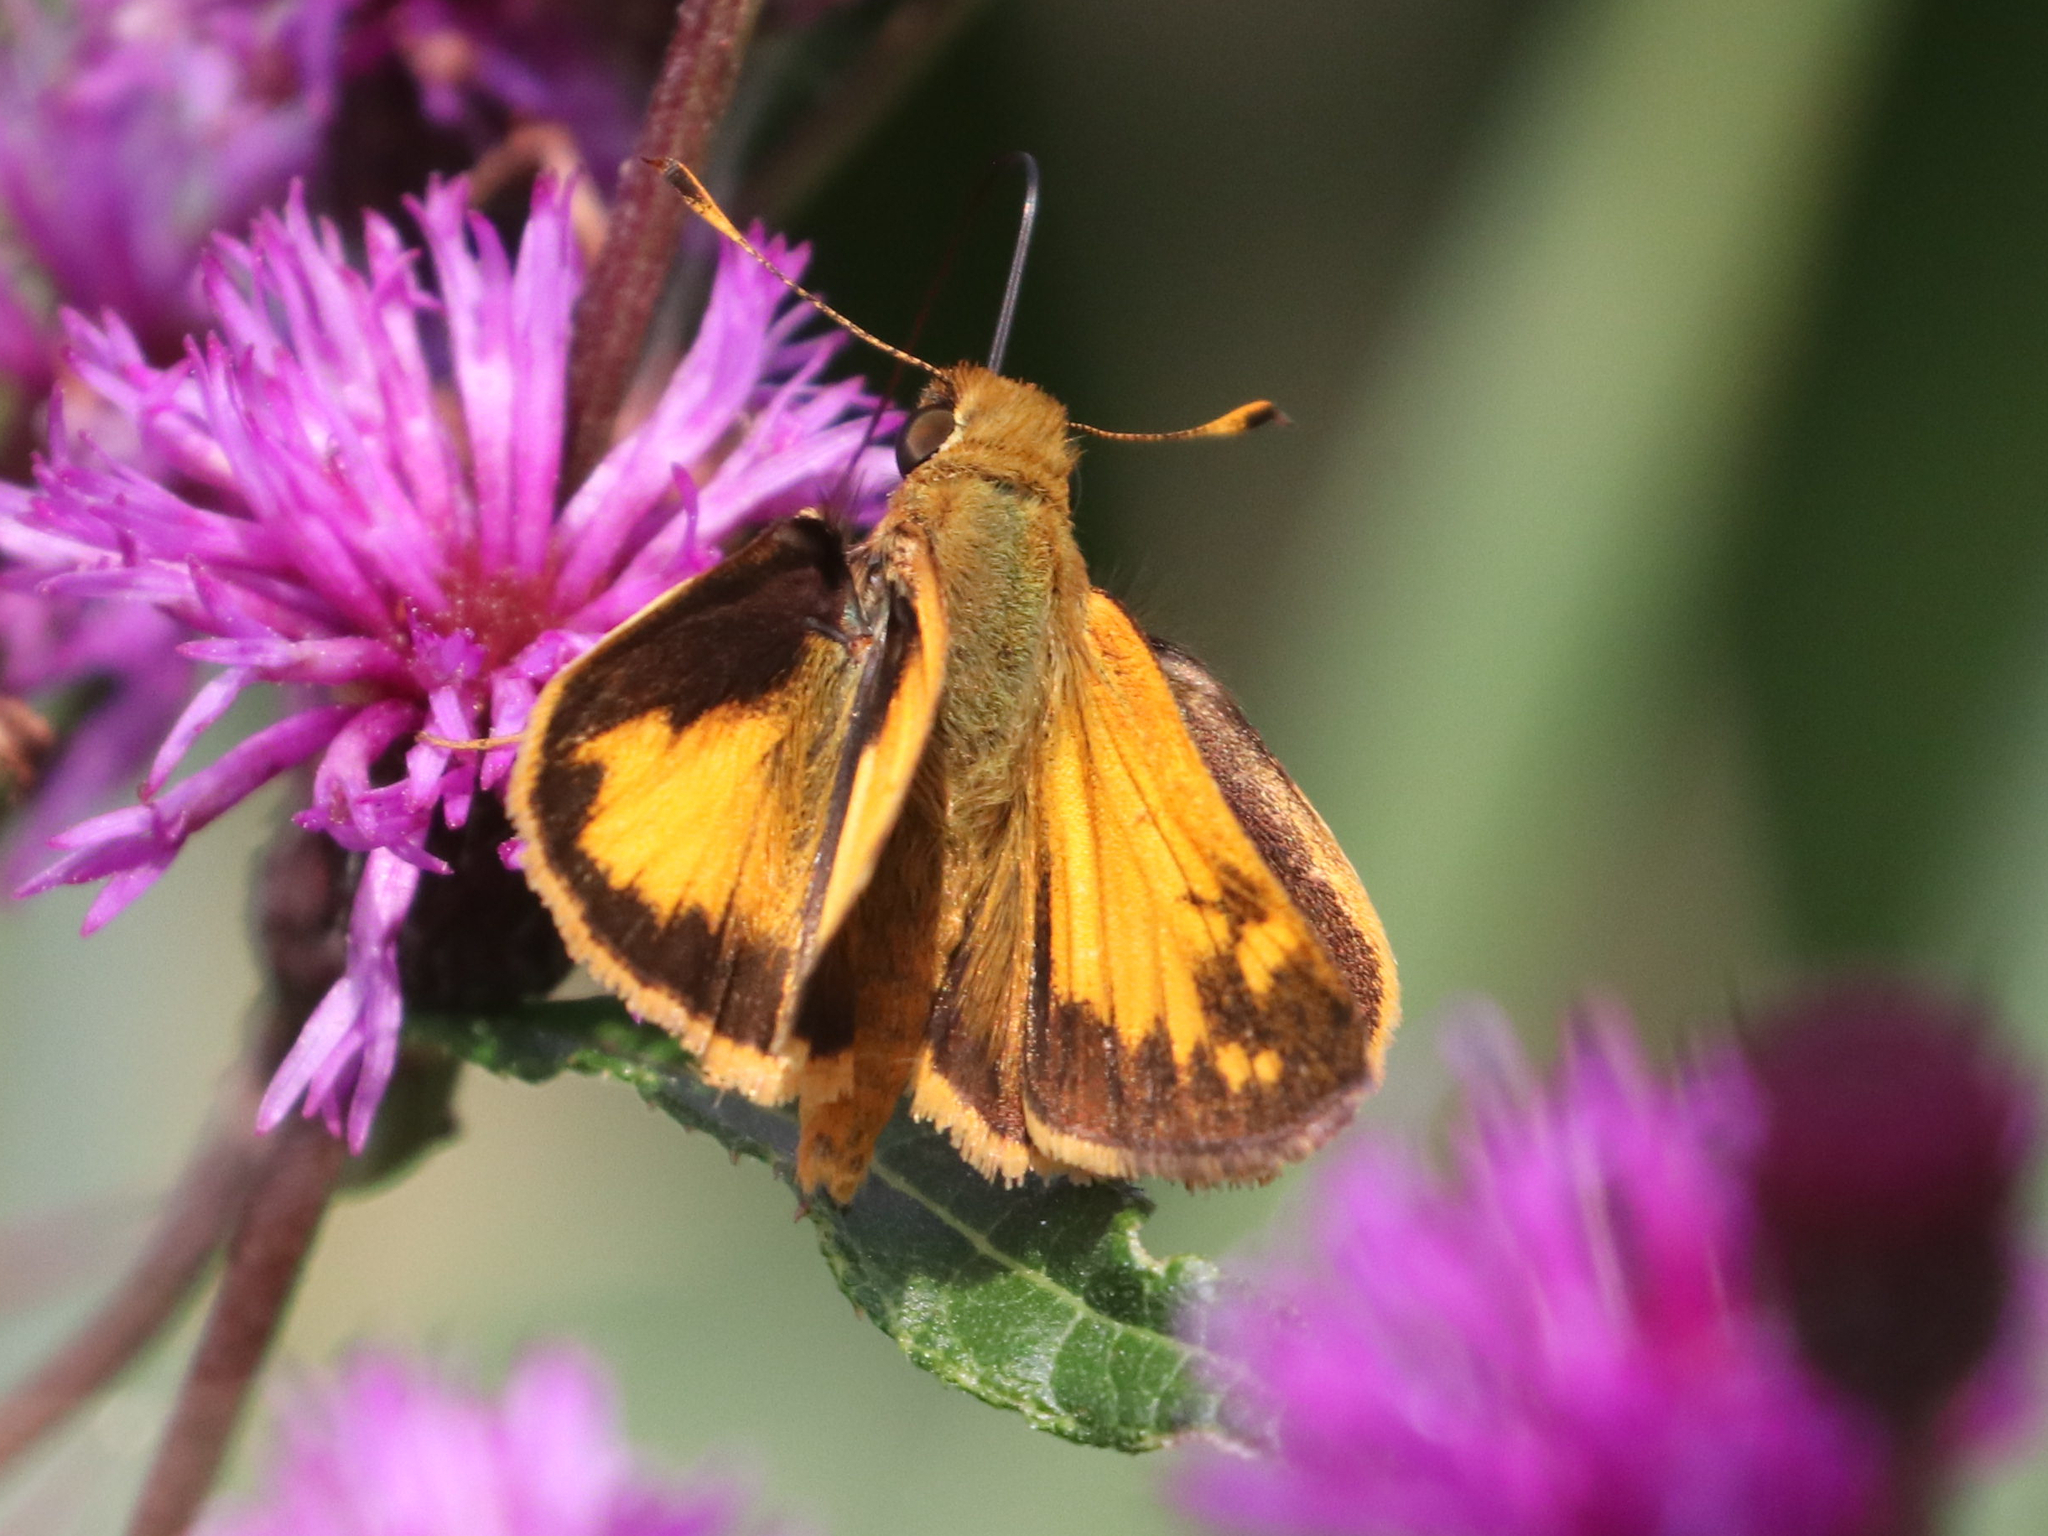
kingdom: Animalia
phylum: Arthropoda
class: Insecta
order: Lepidoptera
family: Hesperiidae
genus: Lon
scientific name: Lon zabulon
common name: Zabulon skipper
